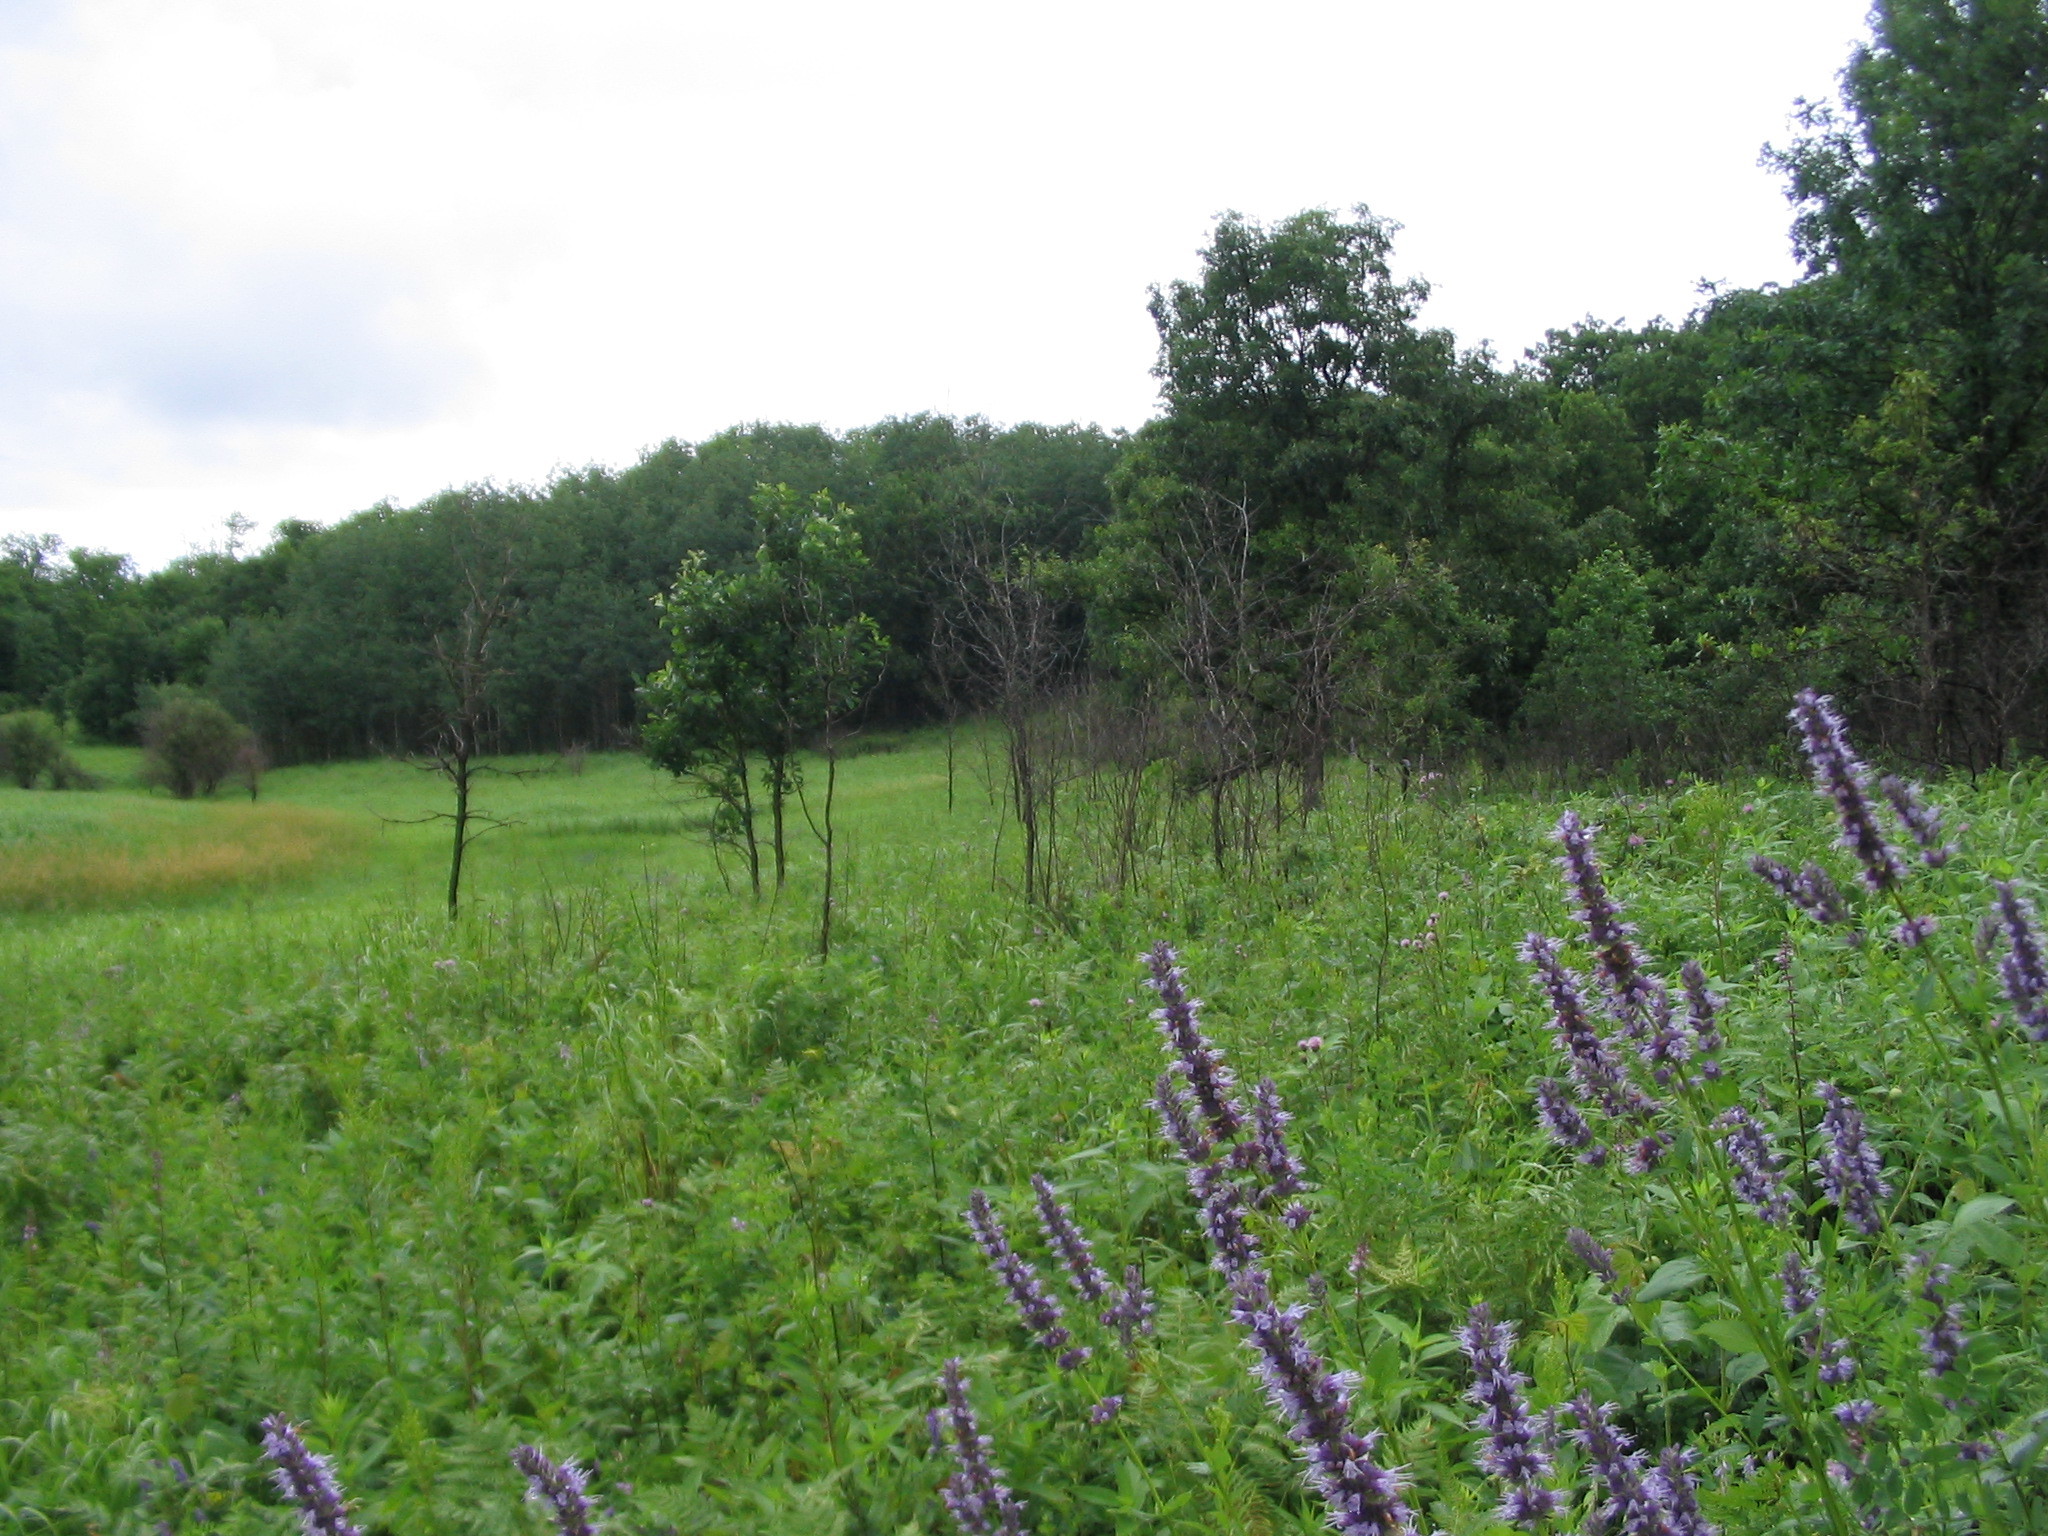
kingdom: Plantae
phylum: Tracheophyta
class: Magnoliopsida
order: Lamiales
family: Lamiaceae
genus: Agastache
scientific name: Agastache foeniculum
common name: Anise hyssop
